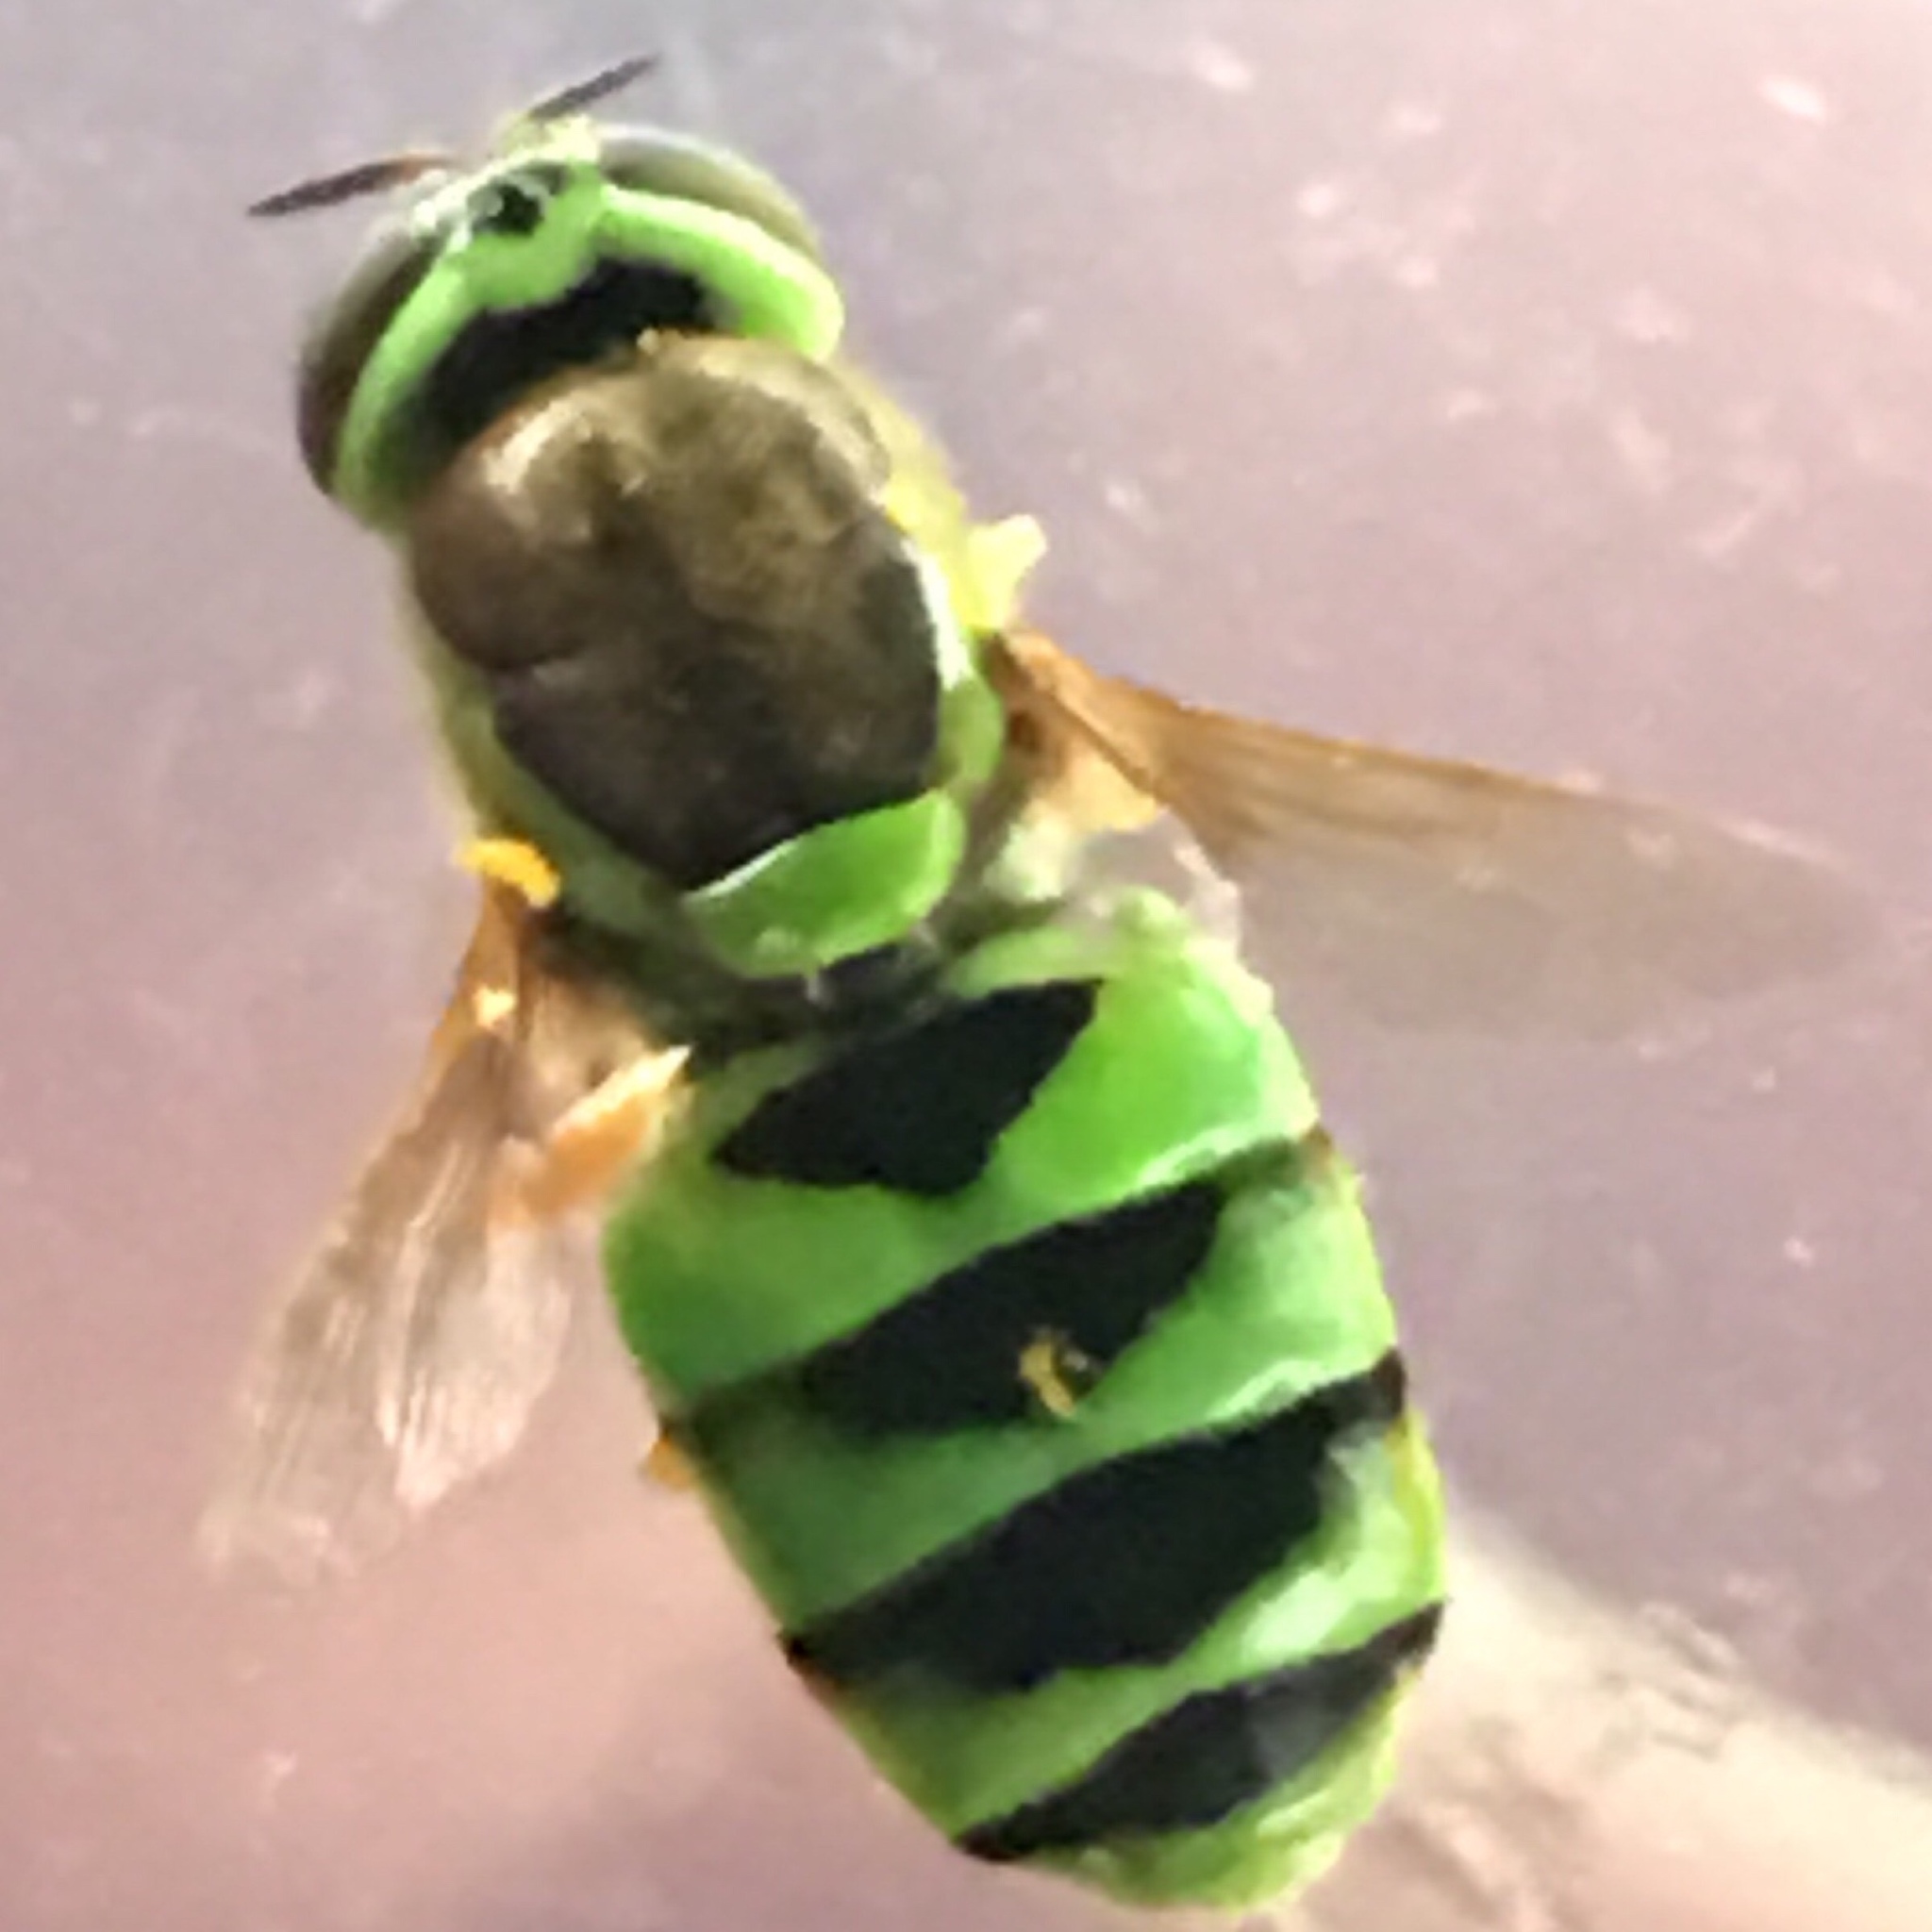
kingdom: Animalia
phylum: Arthropoda
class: Insecta
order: Diptera
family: Stratiomyidae
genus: Odontomyia
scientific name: Odontomyia cincta
